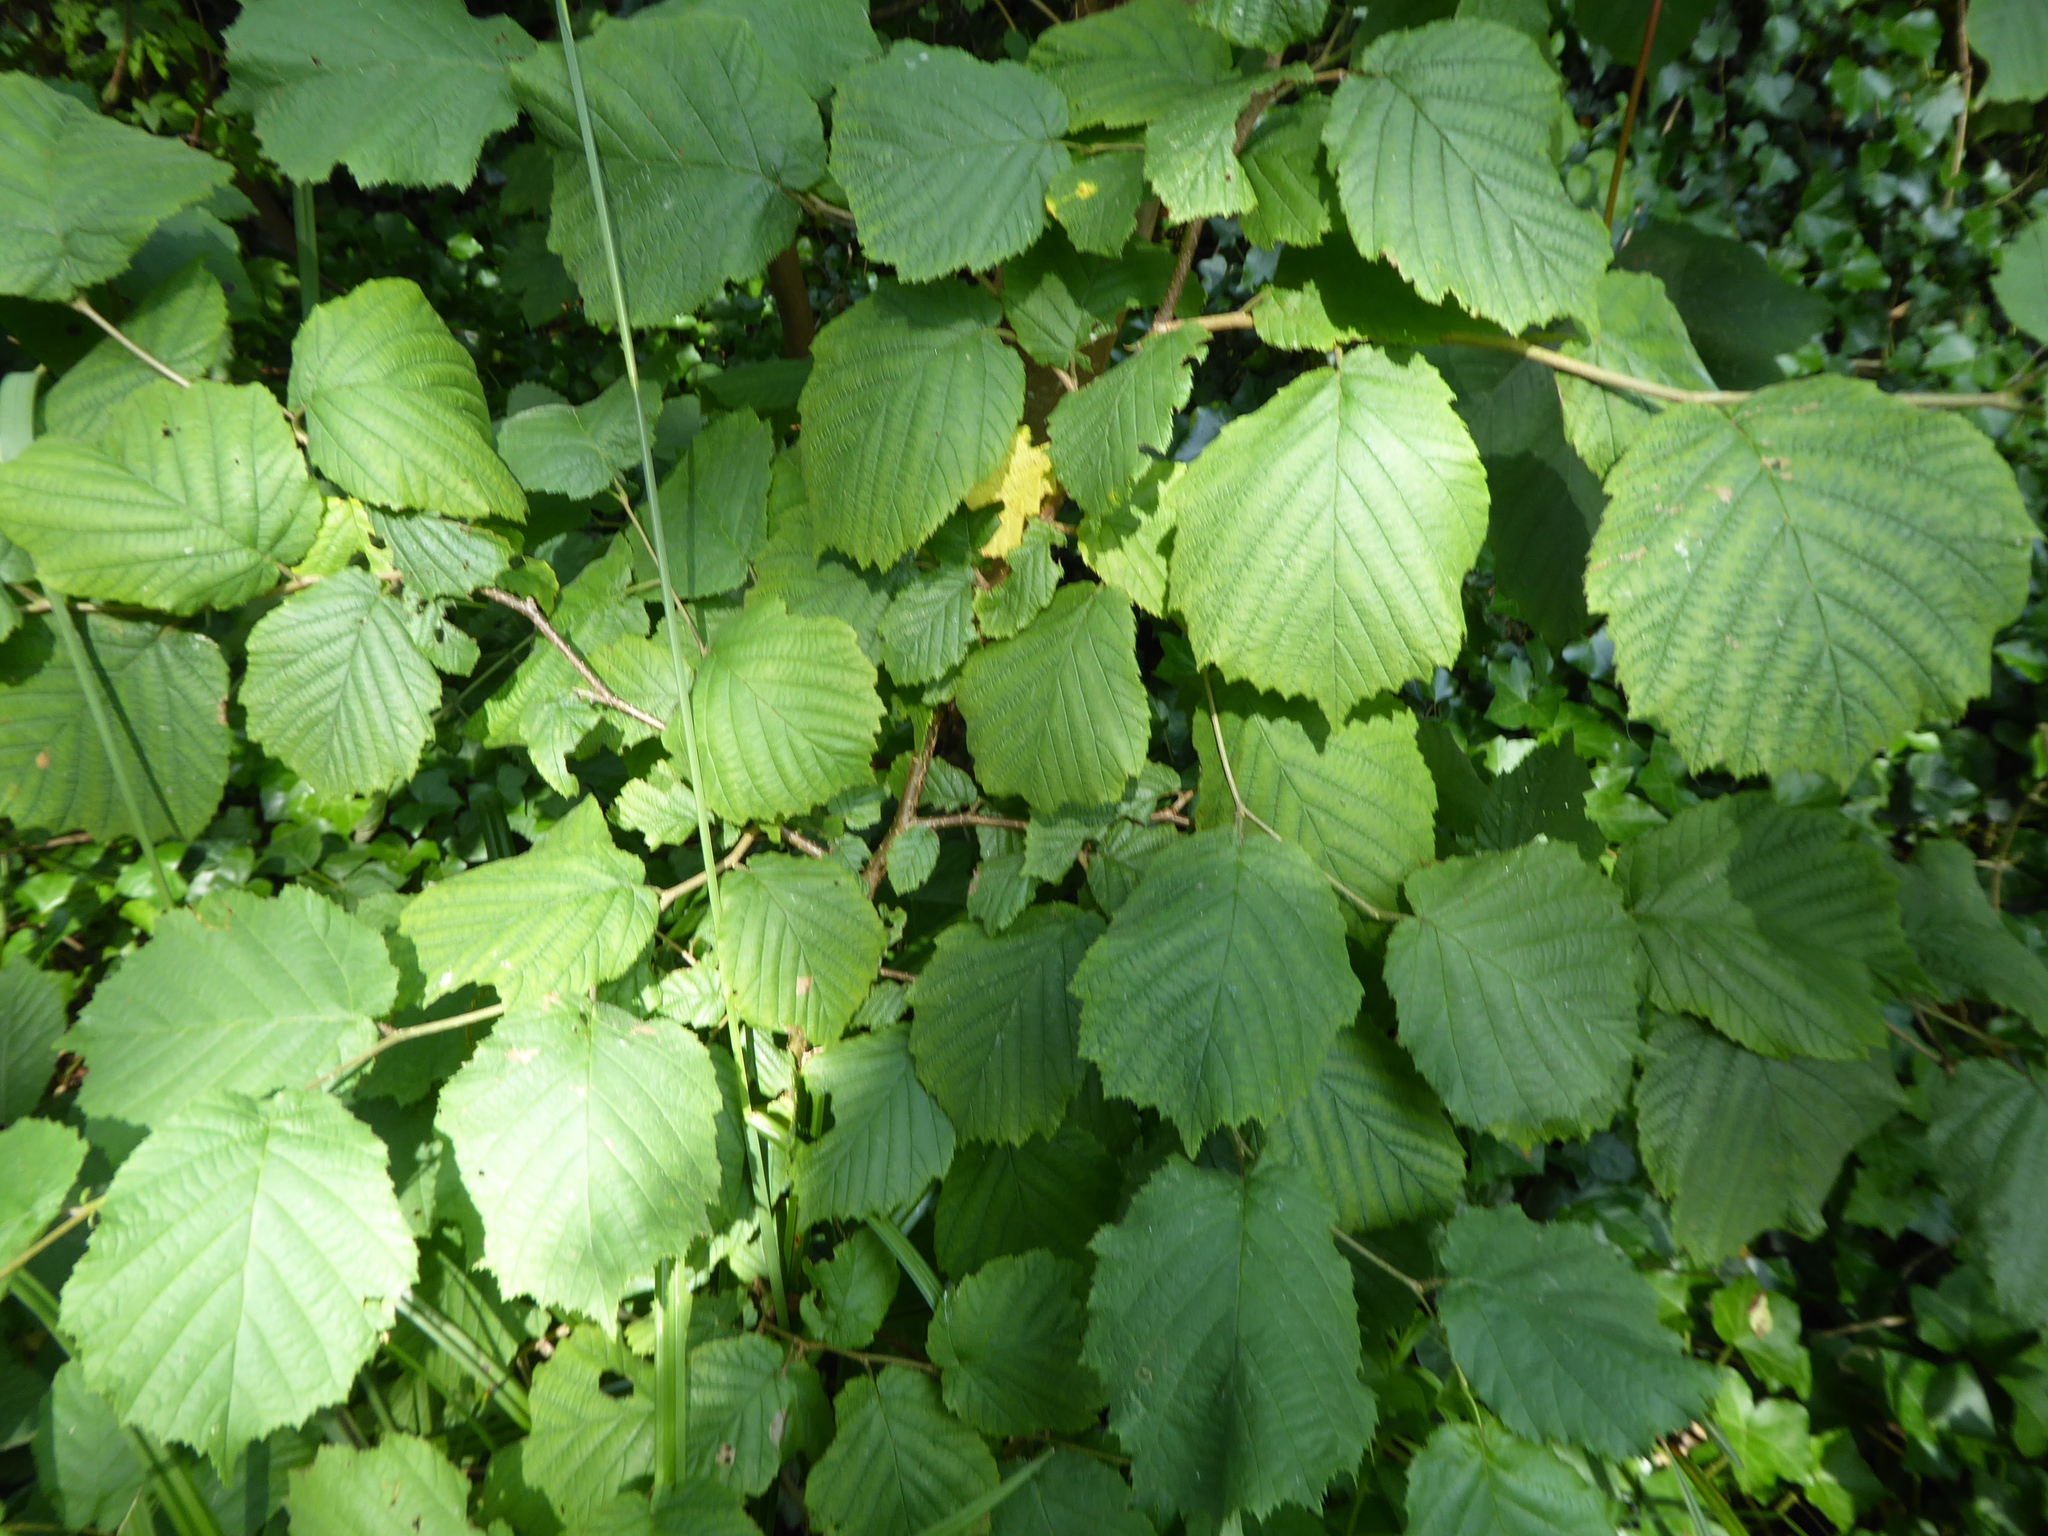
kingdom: Plantae
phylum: Tracheophyta
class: Magnoliopsida
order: Fagales
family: Betulaceae
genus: Corylus
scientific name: Corylus avellana
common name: European hazel
